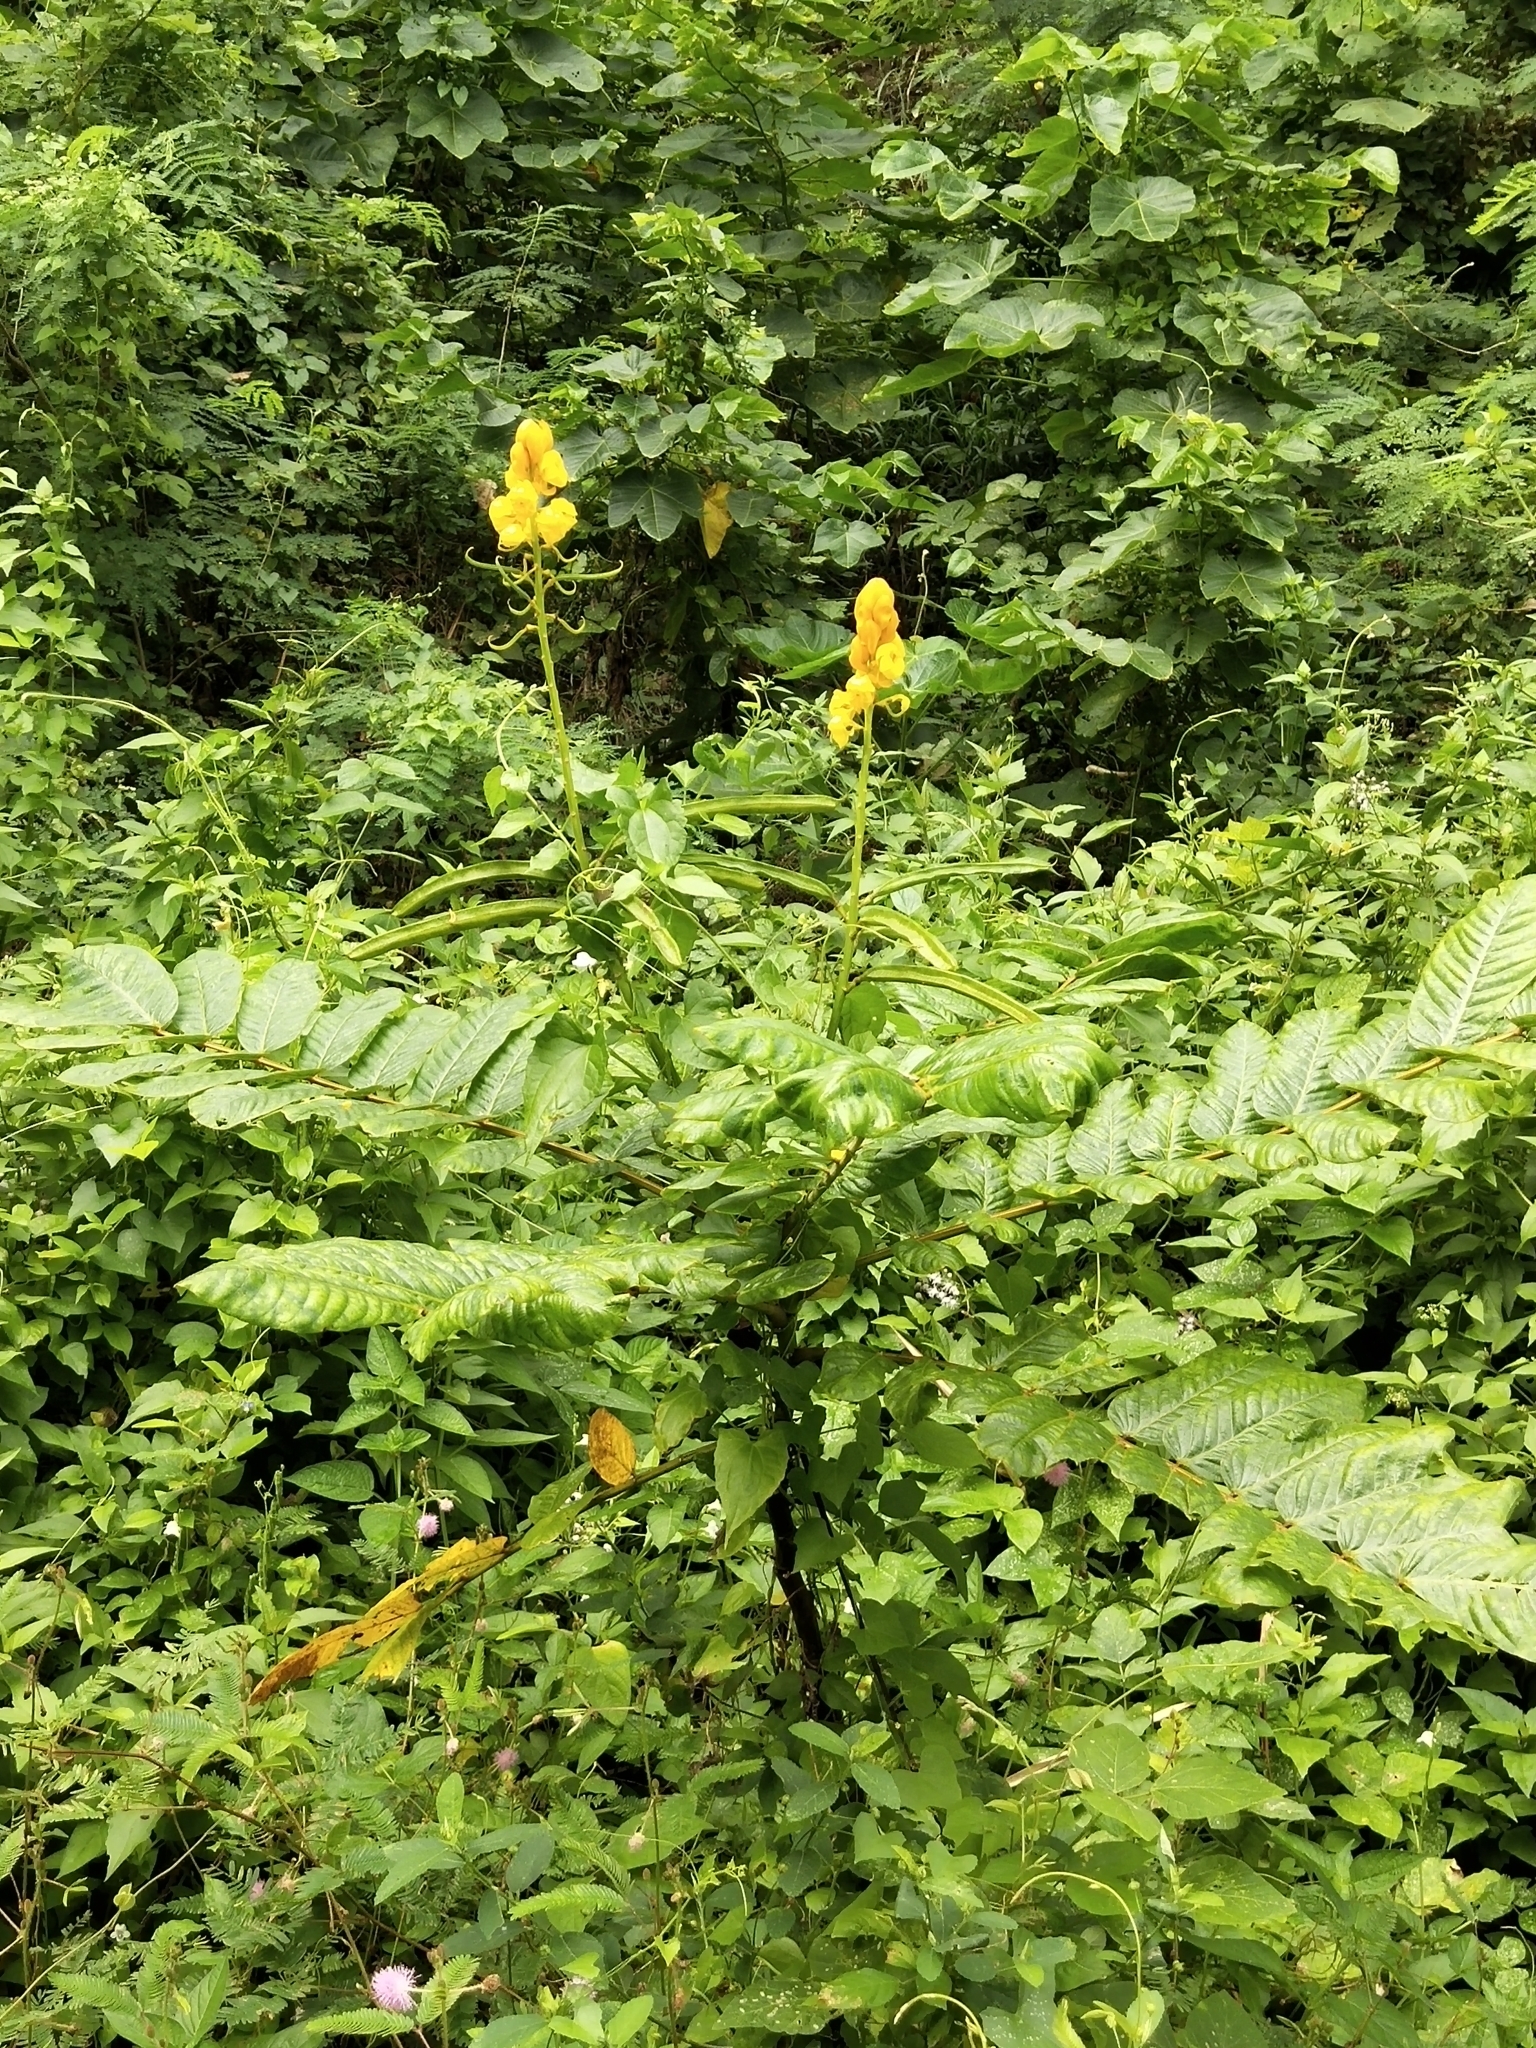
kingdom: Plantae
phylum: Tracheophyta
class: Magnoliopsida
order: Fabales
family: Fabaceae
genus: Senna
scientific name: Senna alata
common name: Emperor's candlesticks
